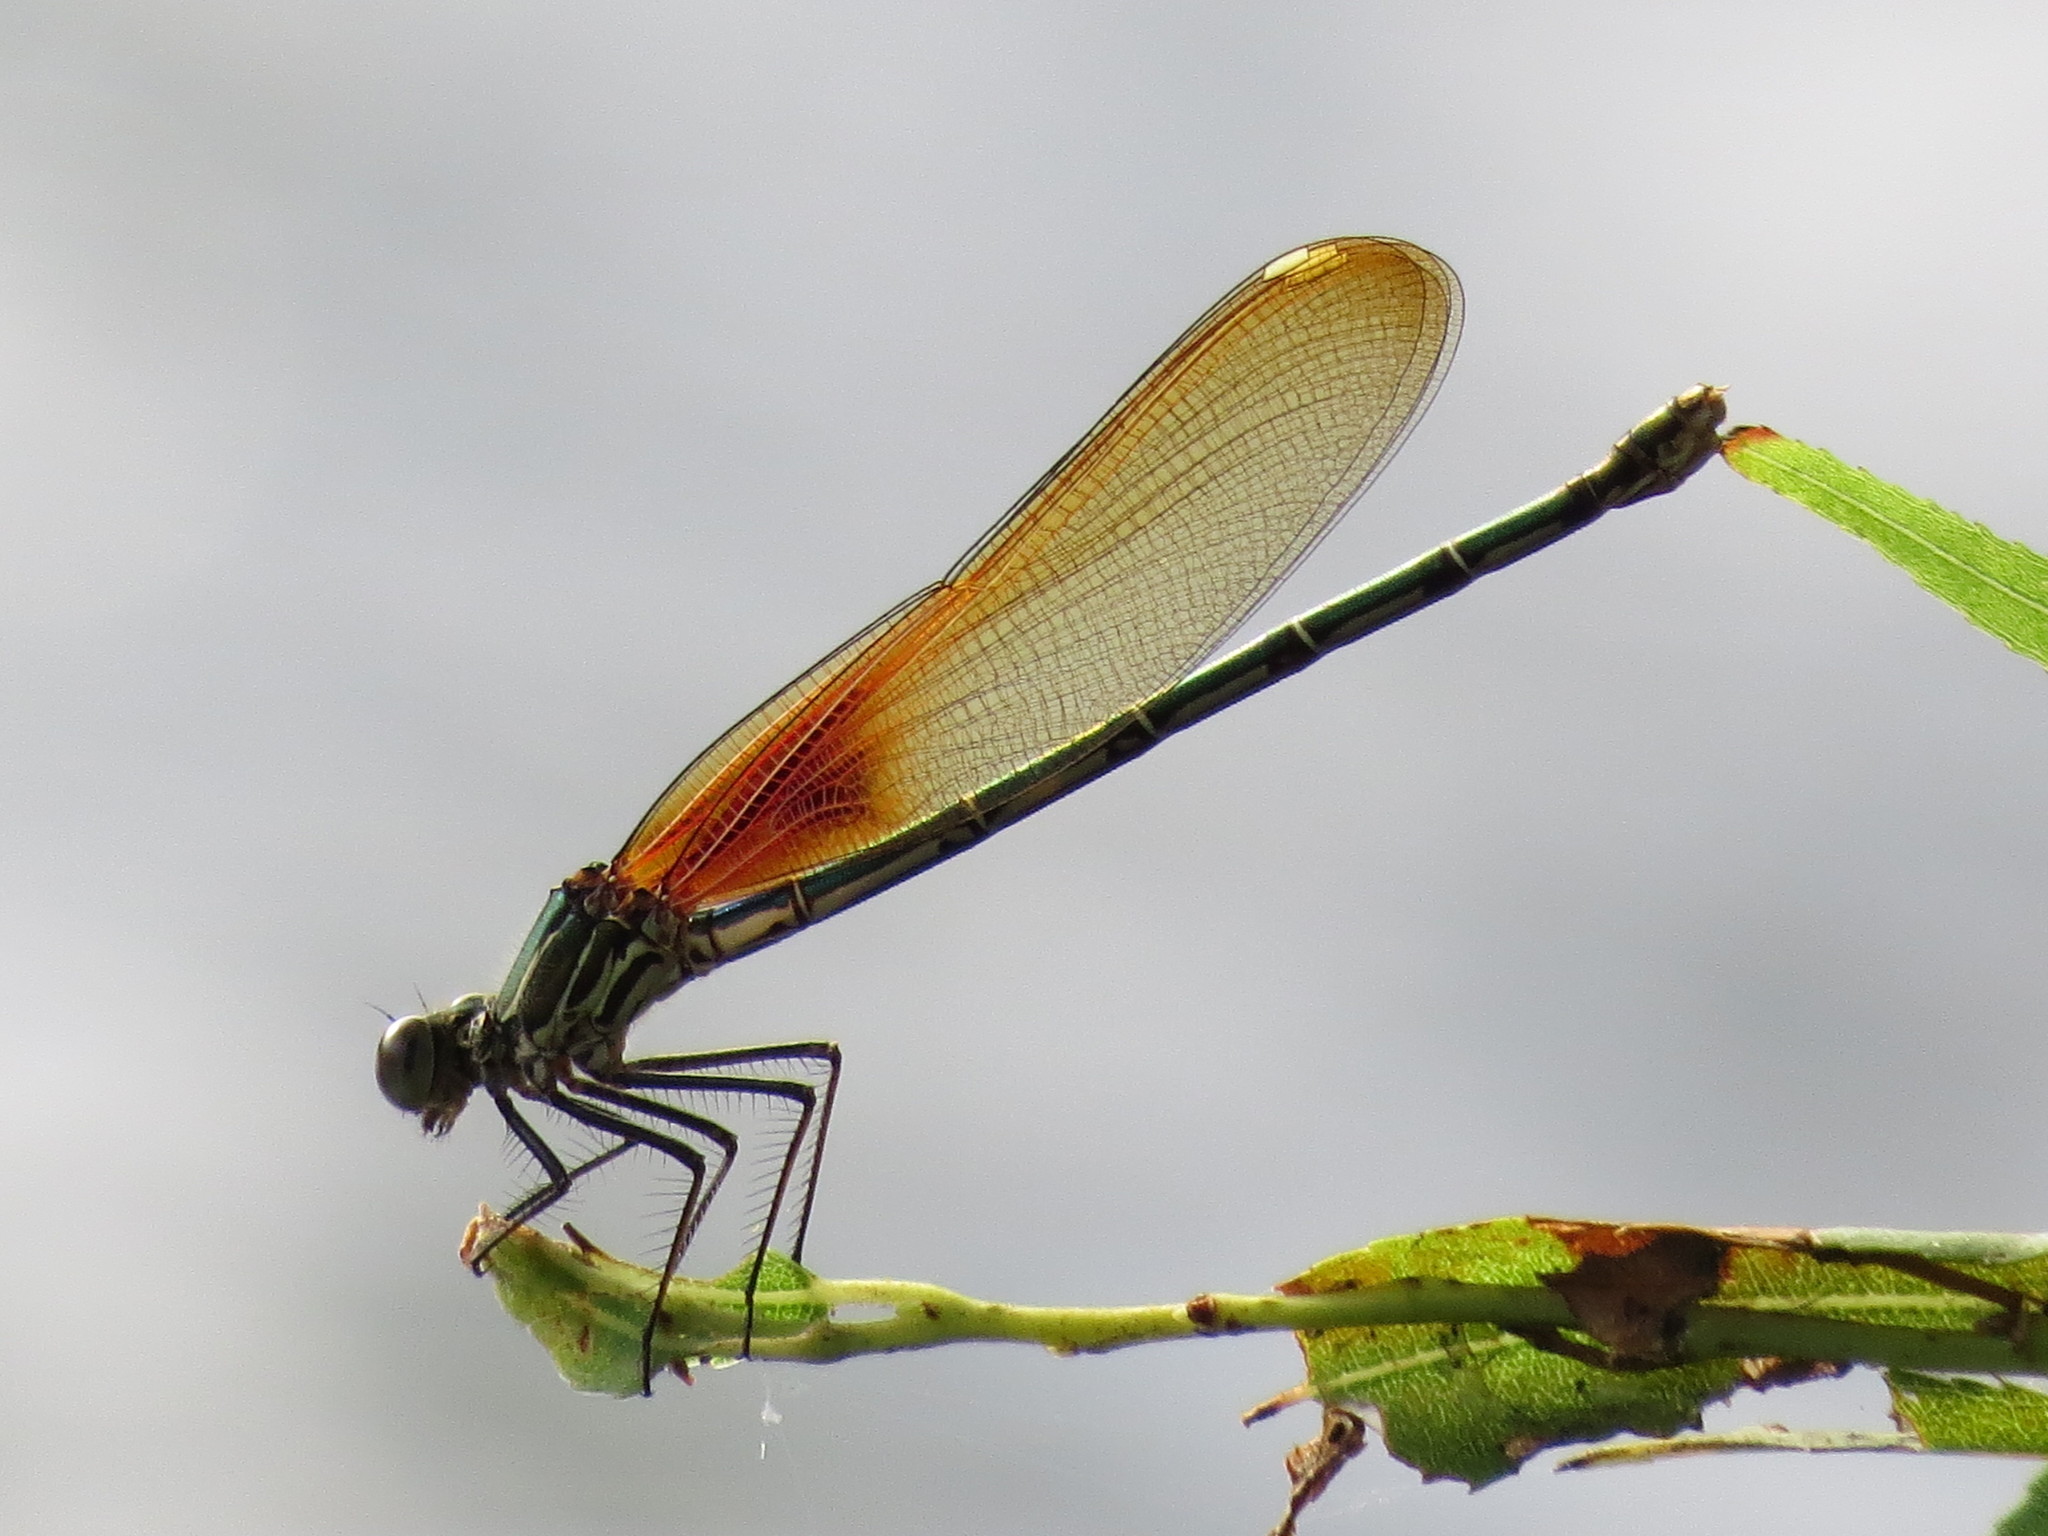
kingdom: Animalia
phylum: Arthropoda
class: Insecta
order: Odonata
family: Calopterygidae
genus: Hetaerina
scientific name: Hetaerina americana
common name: American rubyspot
